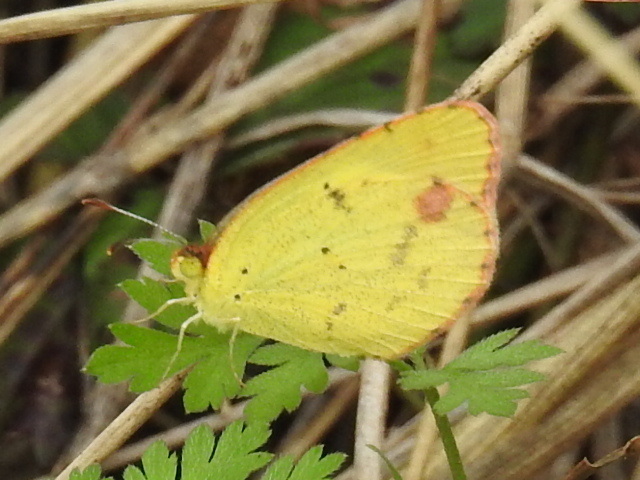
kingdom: Animalia
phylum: Arthropoda
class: Insecta
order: Lepidoptera
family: Pieridae
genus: Pyrisitia
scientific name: Pyrisitia lisa
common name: Little yellow
